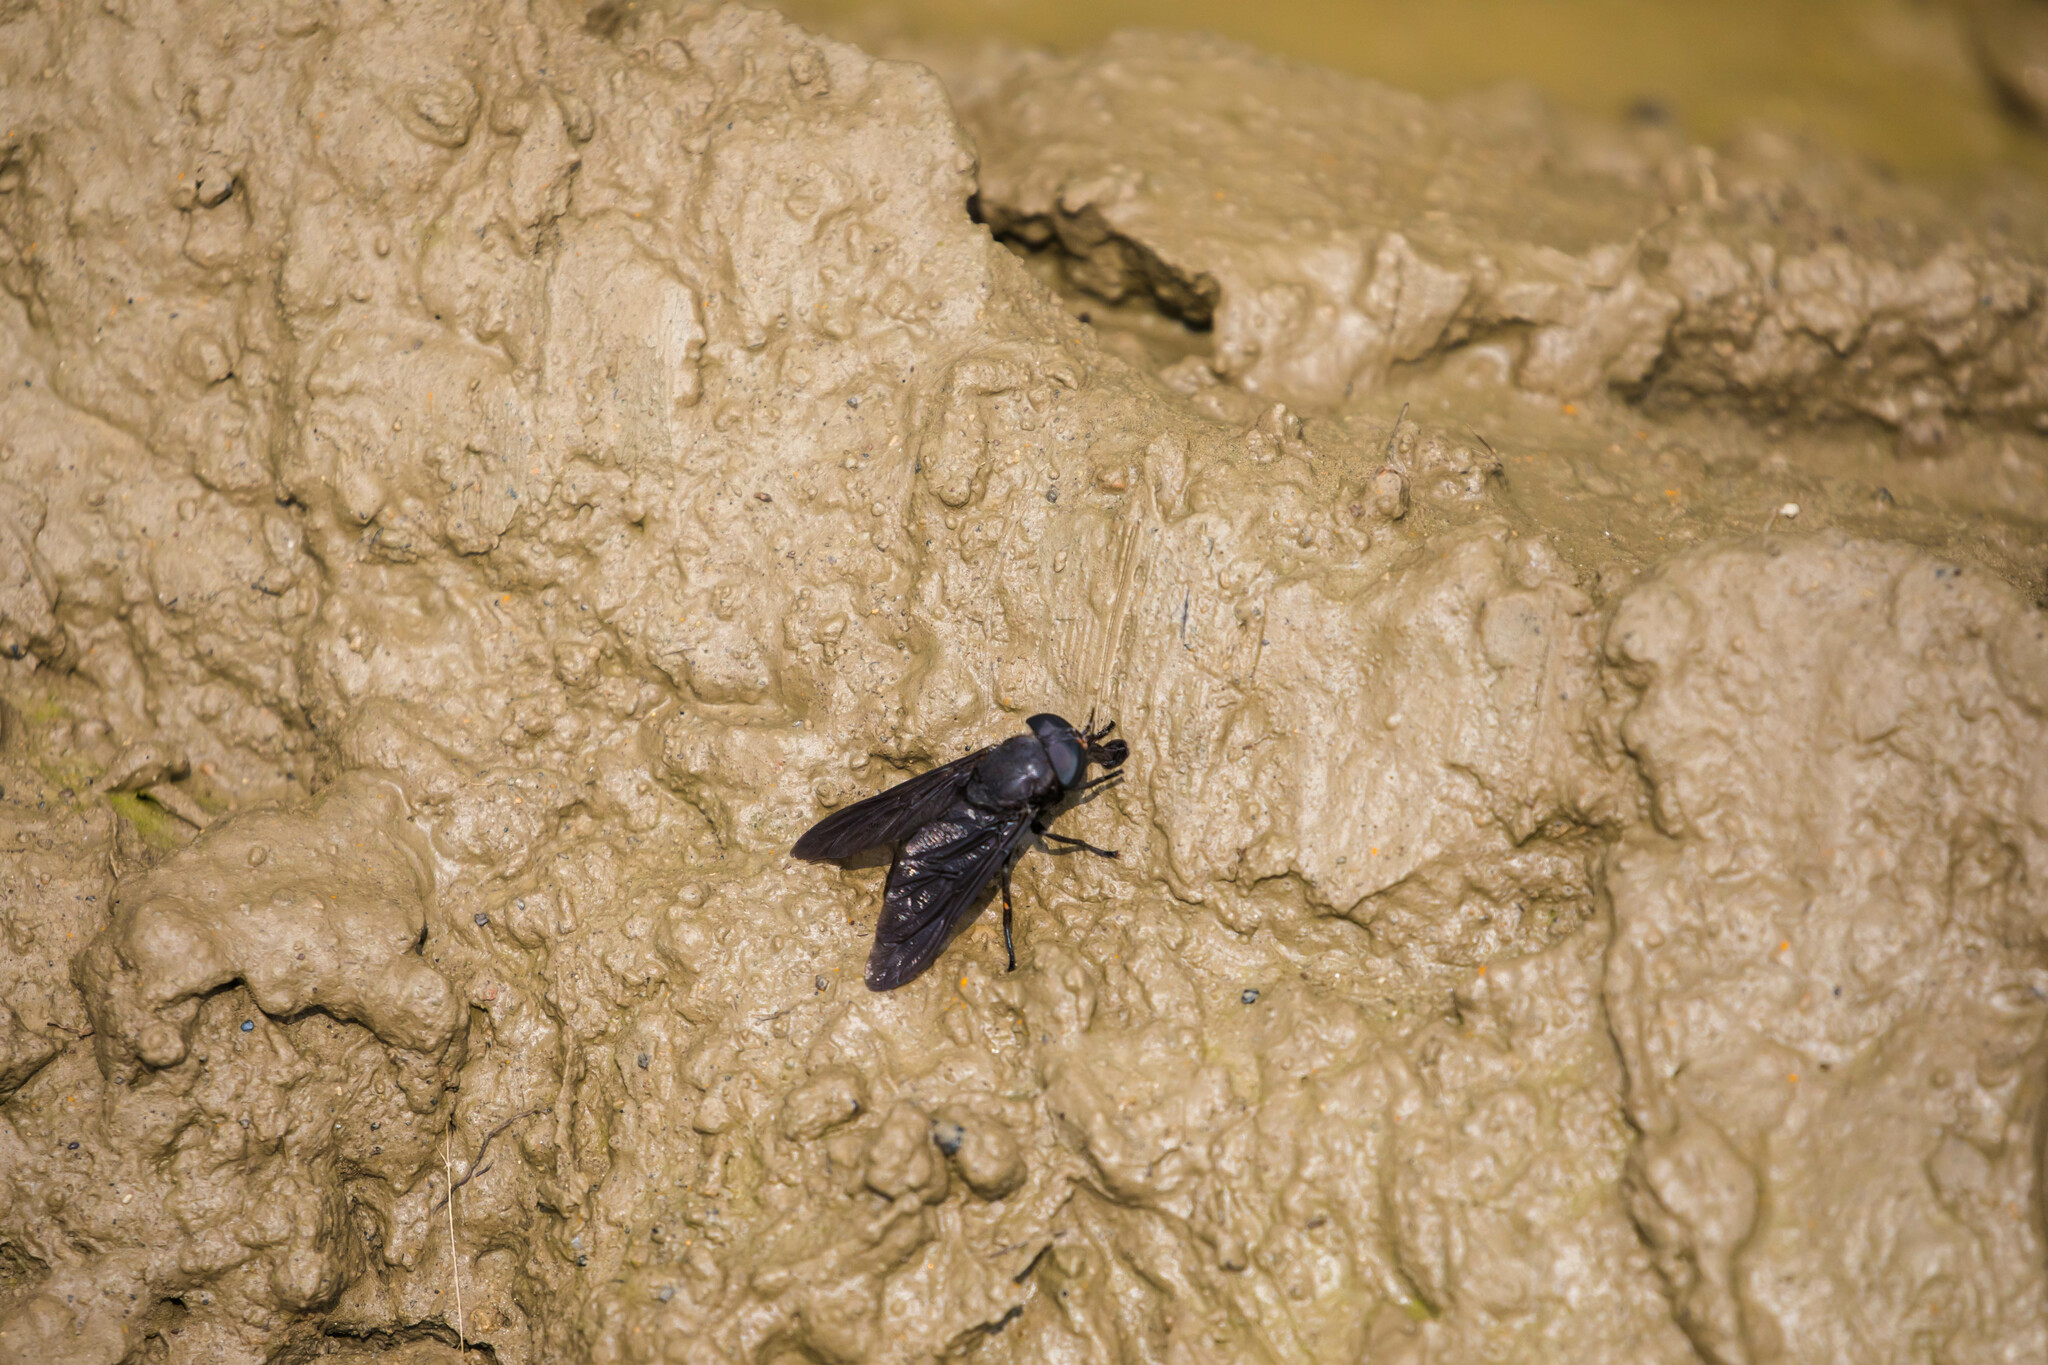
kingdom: Animalia
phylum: Arthropoda
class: Insecta
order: Diptera
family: Tabanidae
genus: Tabanus
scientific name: Tabanus atratus
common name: Black horse fly
